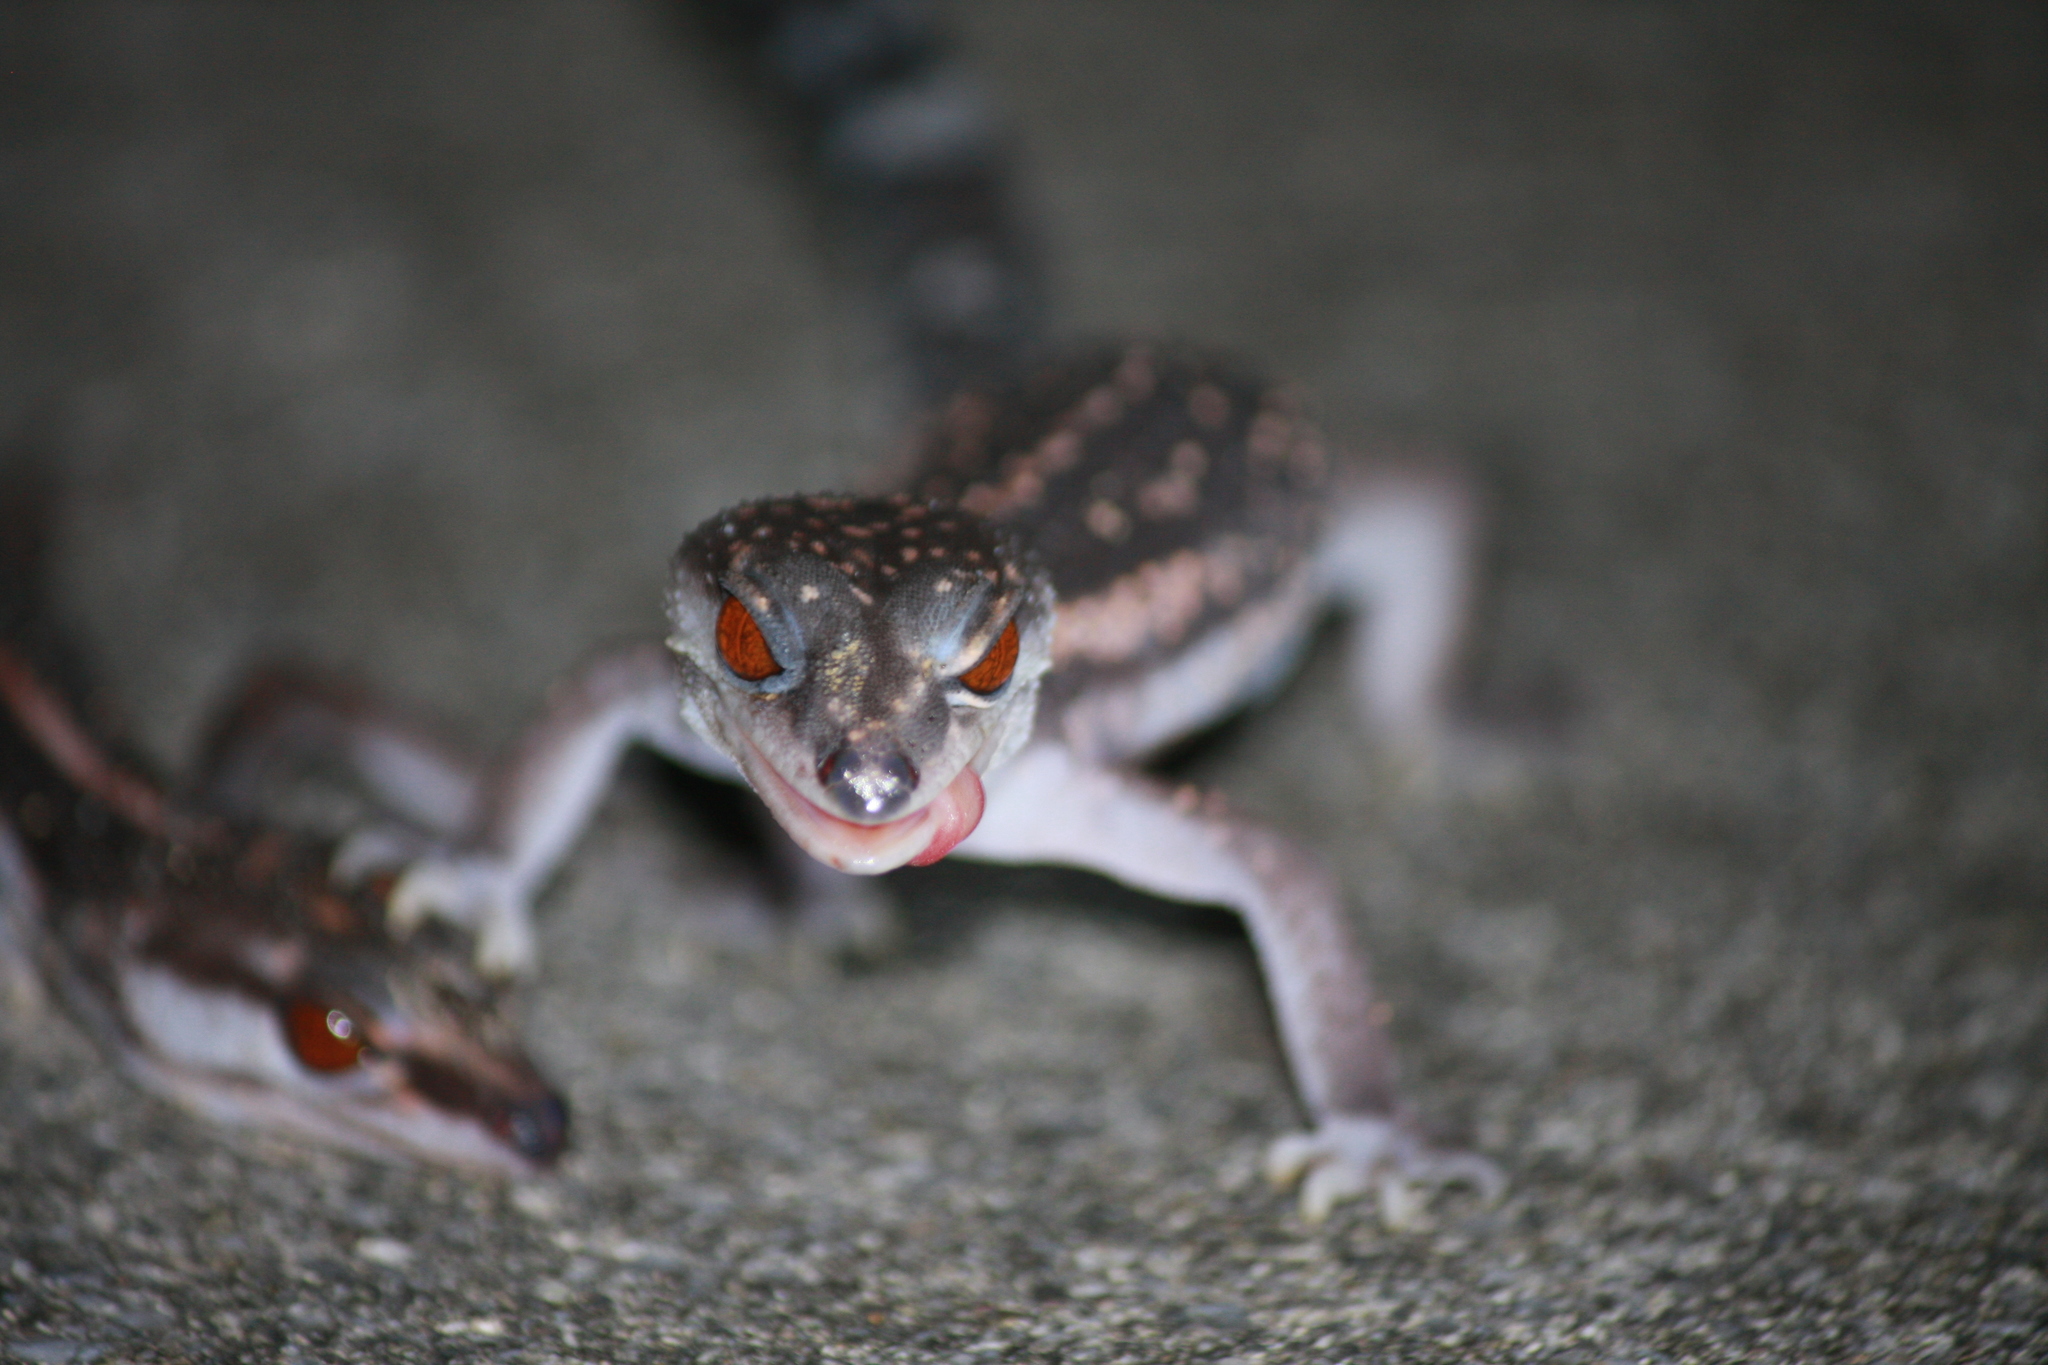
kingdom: Animalia
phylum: Chordata
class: Squamata
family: Eublepharidae
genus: Goniurosaurus
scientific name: Goniurosaurus kuroiwae
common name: Tokashiki gecko
